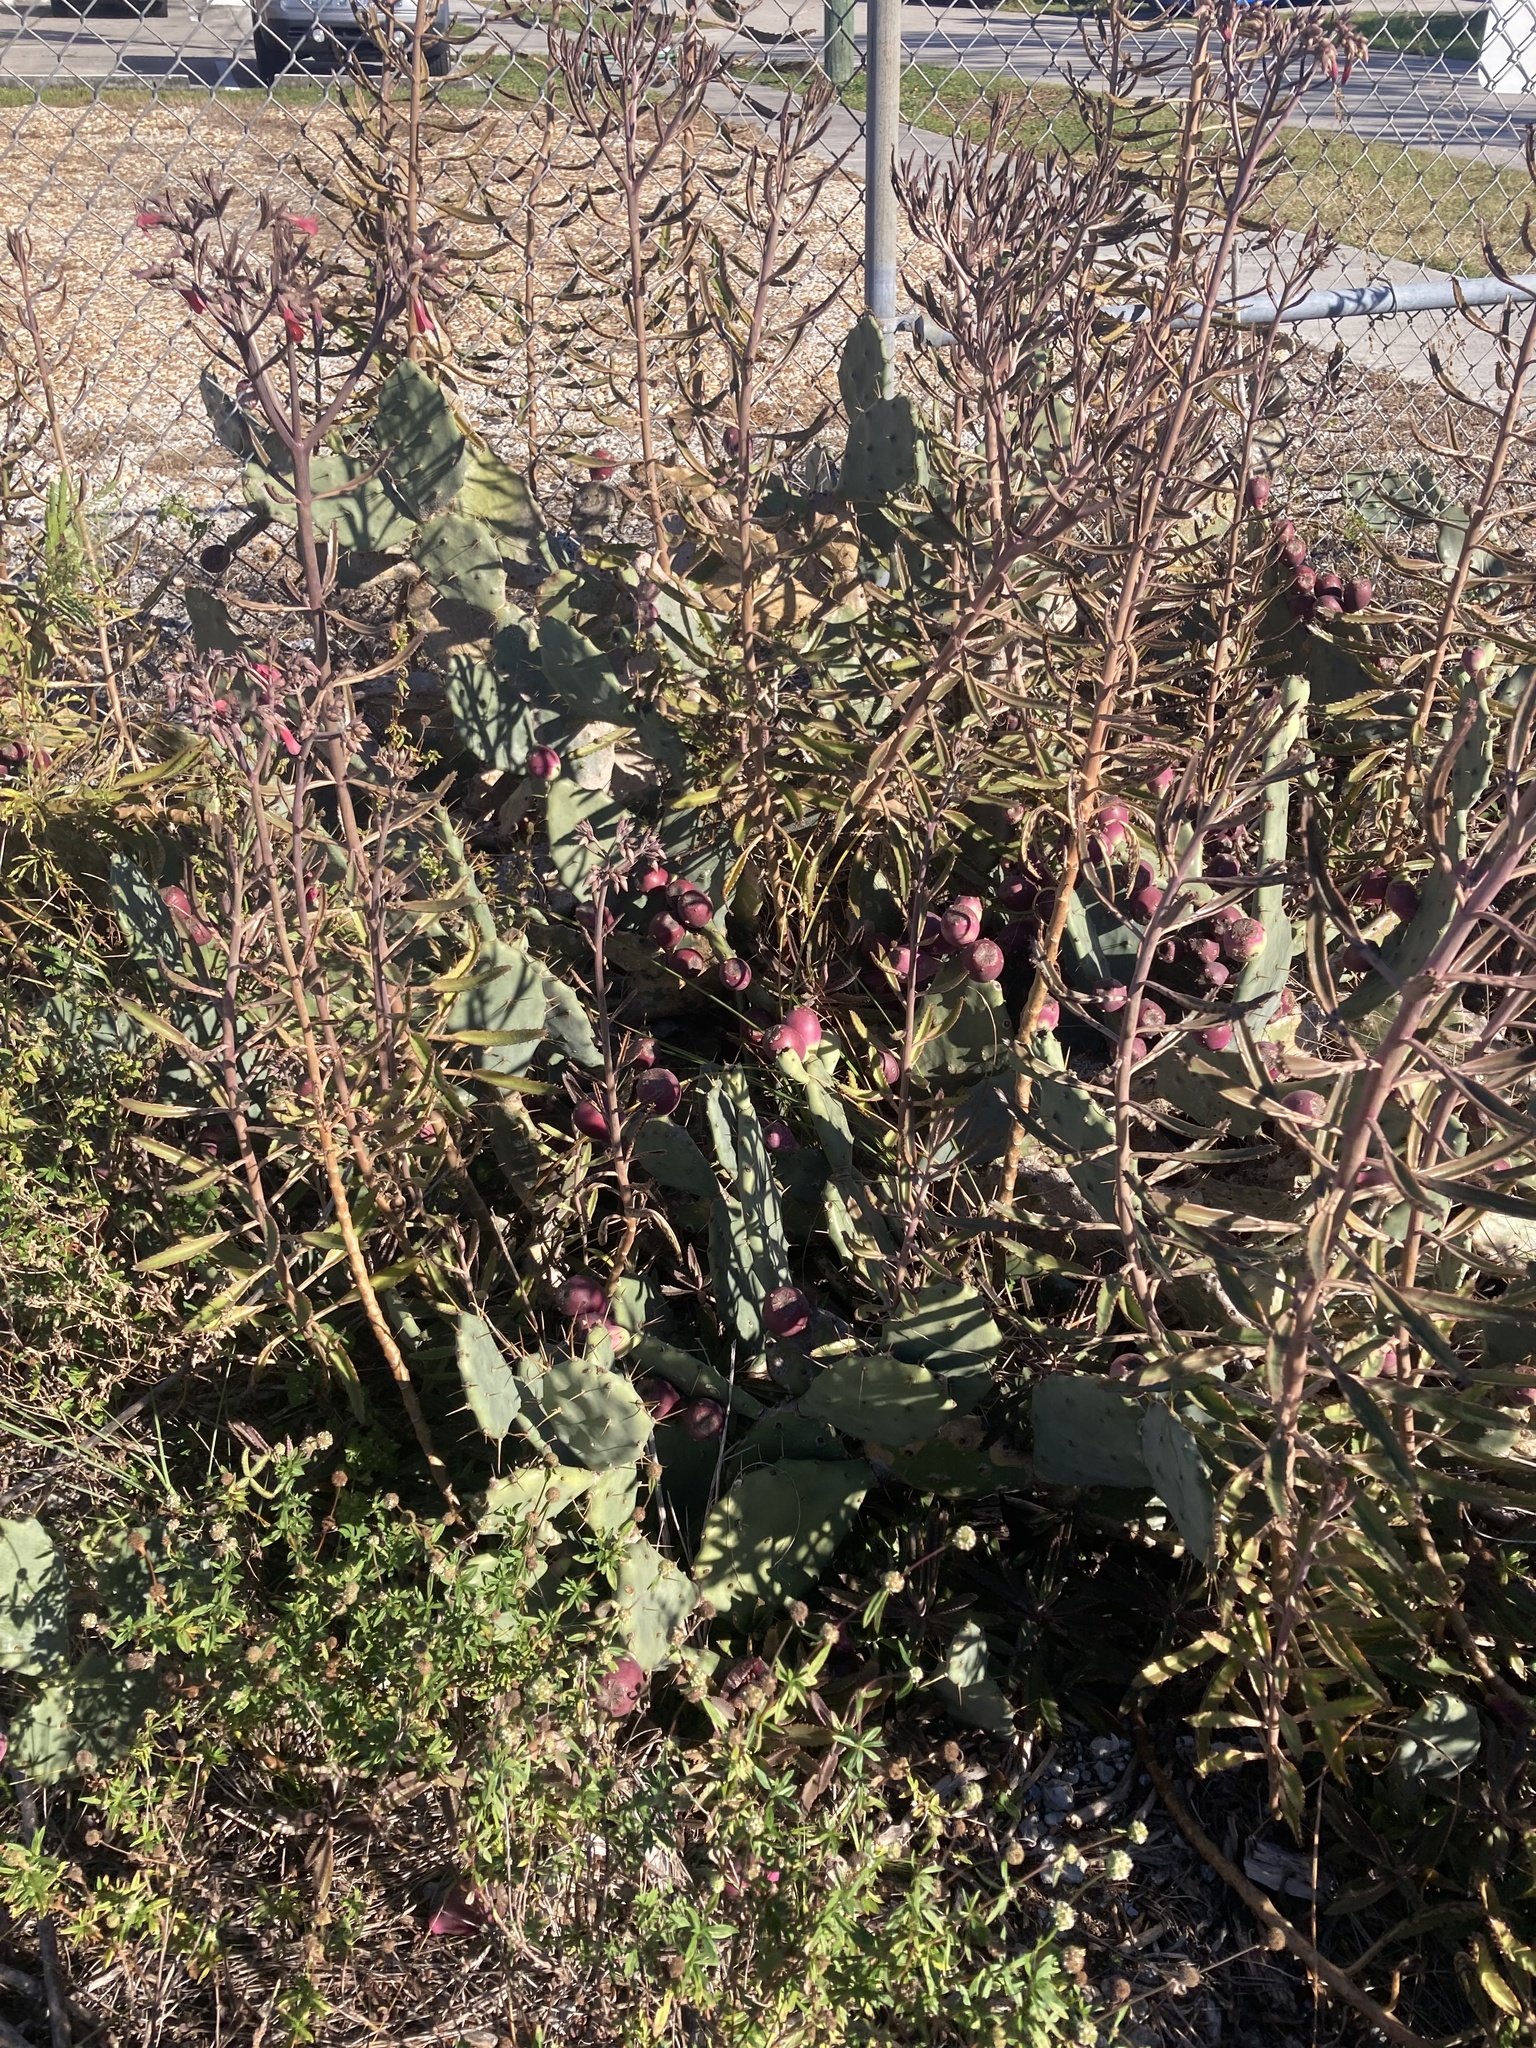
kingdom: Plantae
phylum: Tracheophyta
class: Magnoliopsida
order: Saxifragales
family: Crassulaceae
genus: Kalanchoe
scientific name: Kalanchoe houghtonii
